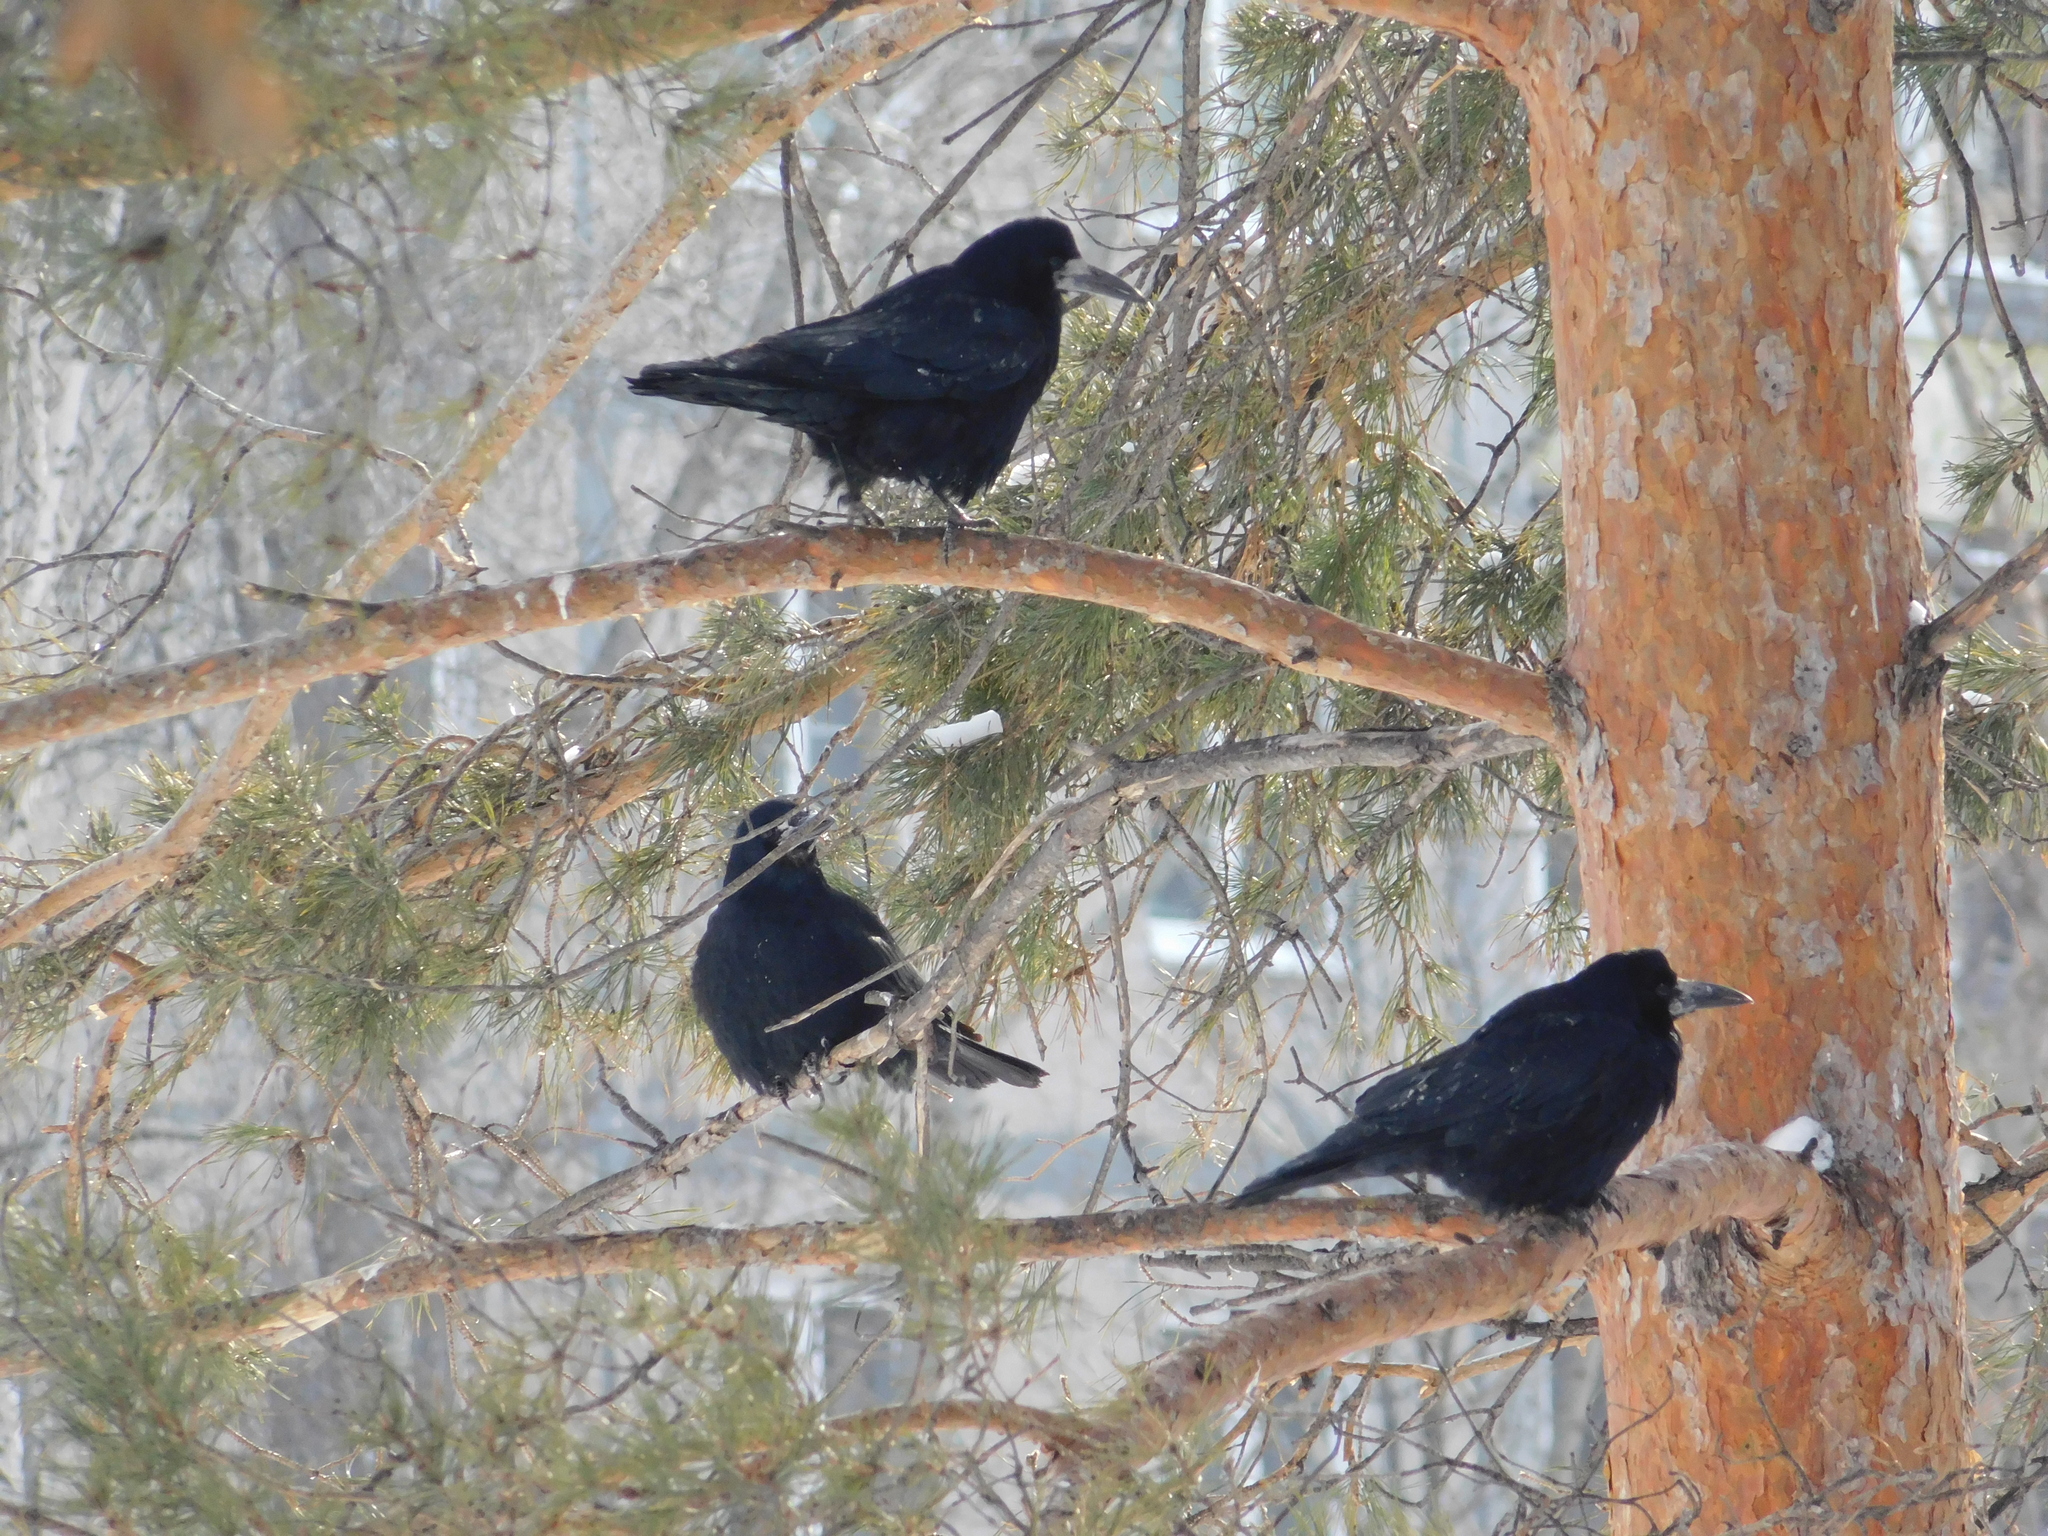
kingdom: Animalia
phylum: Chordata
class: Aves
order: Passeriformes
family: Corvidae
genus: Corvus
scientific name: Corvus frugilegus
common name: Rook
